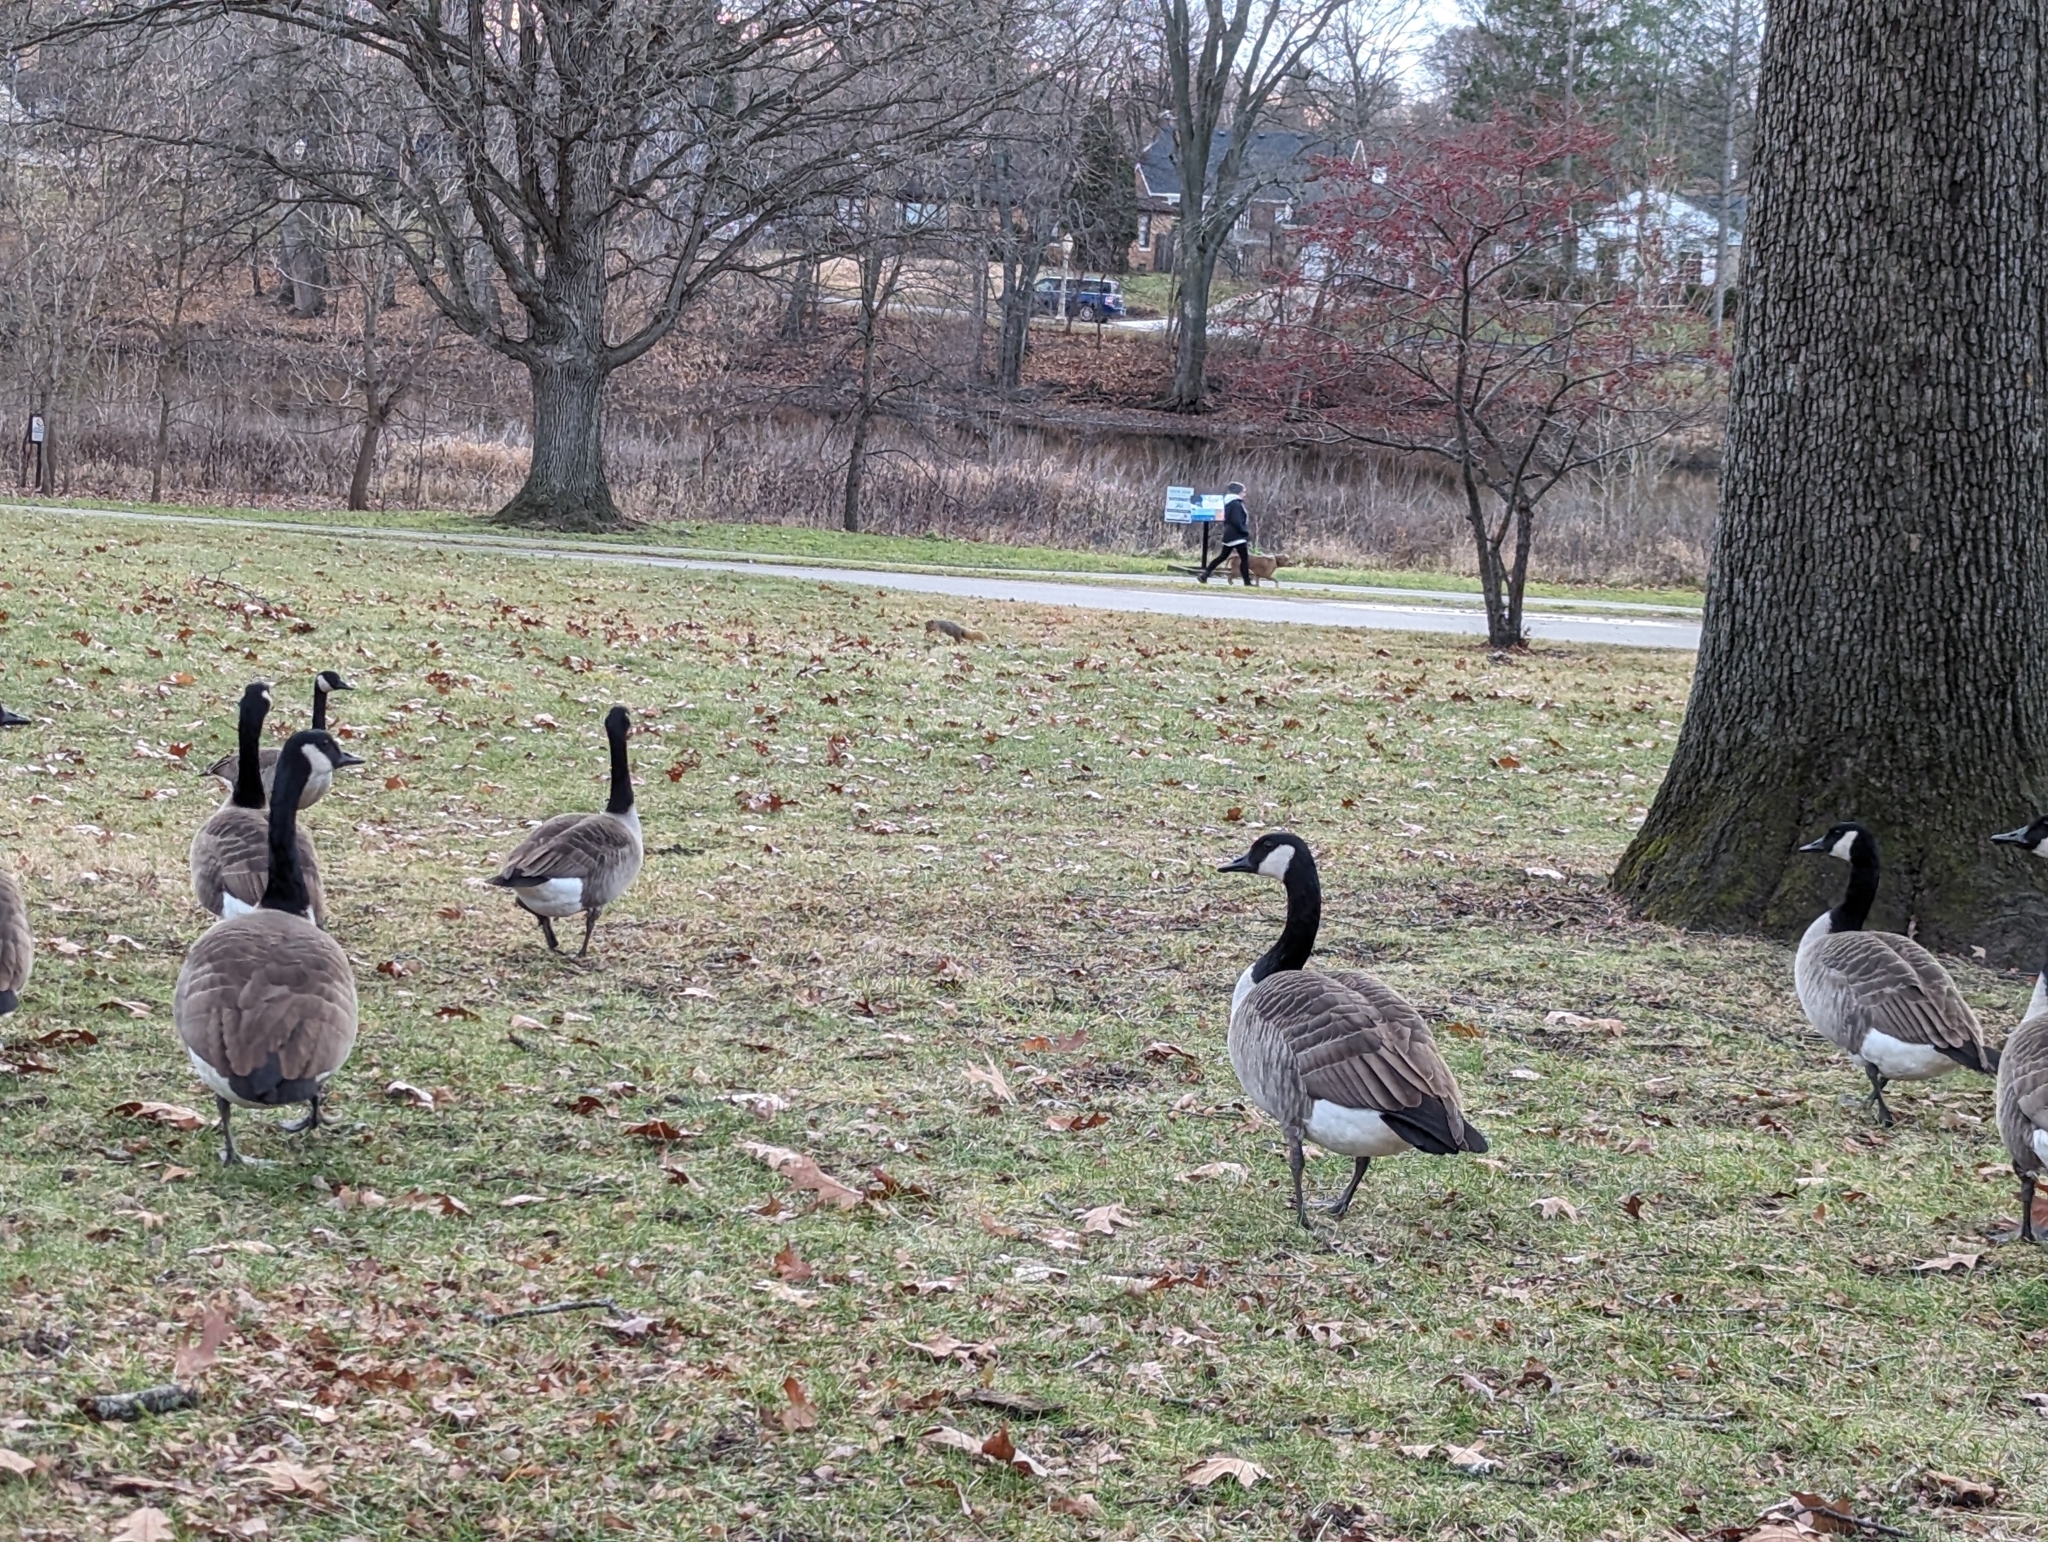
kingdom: Animalia
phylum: Chordata
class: Aves
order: Anseriformes
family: Anatidae
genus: Branta
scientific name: Branta canadensis
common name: Canada goose
